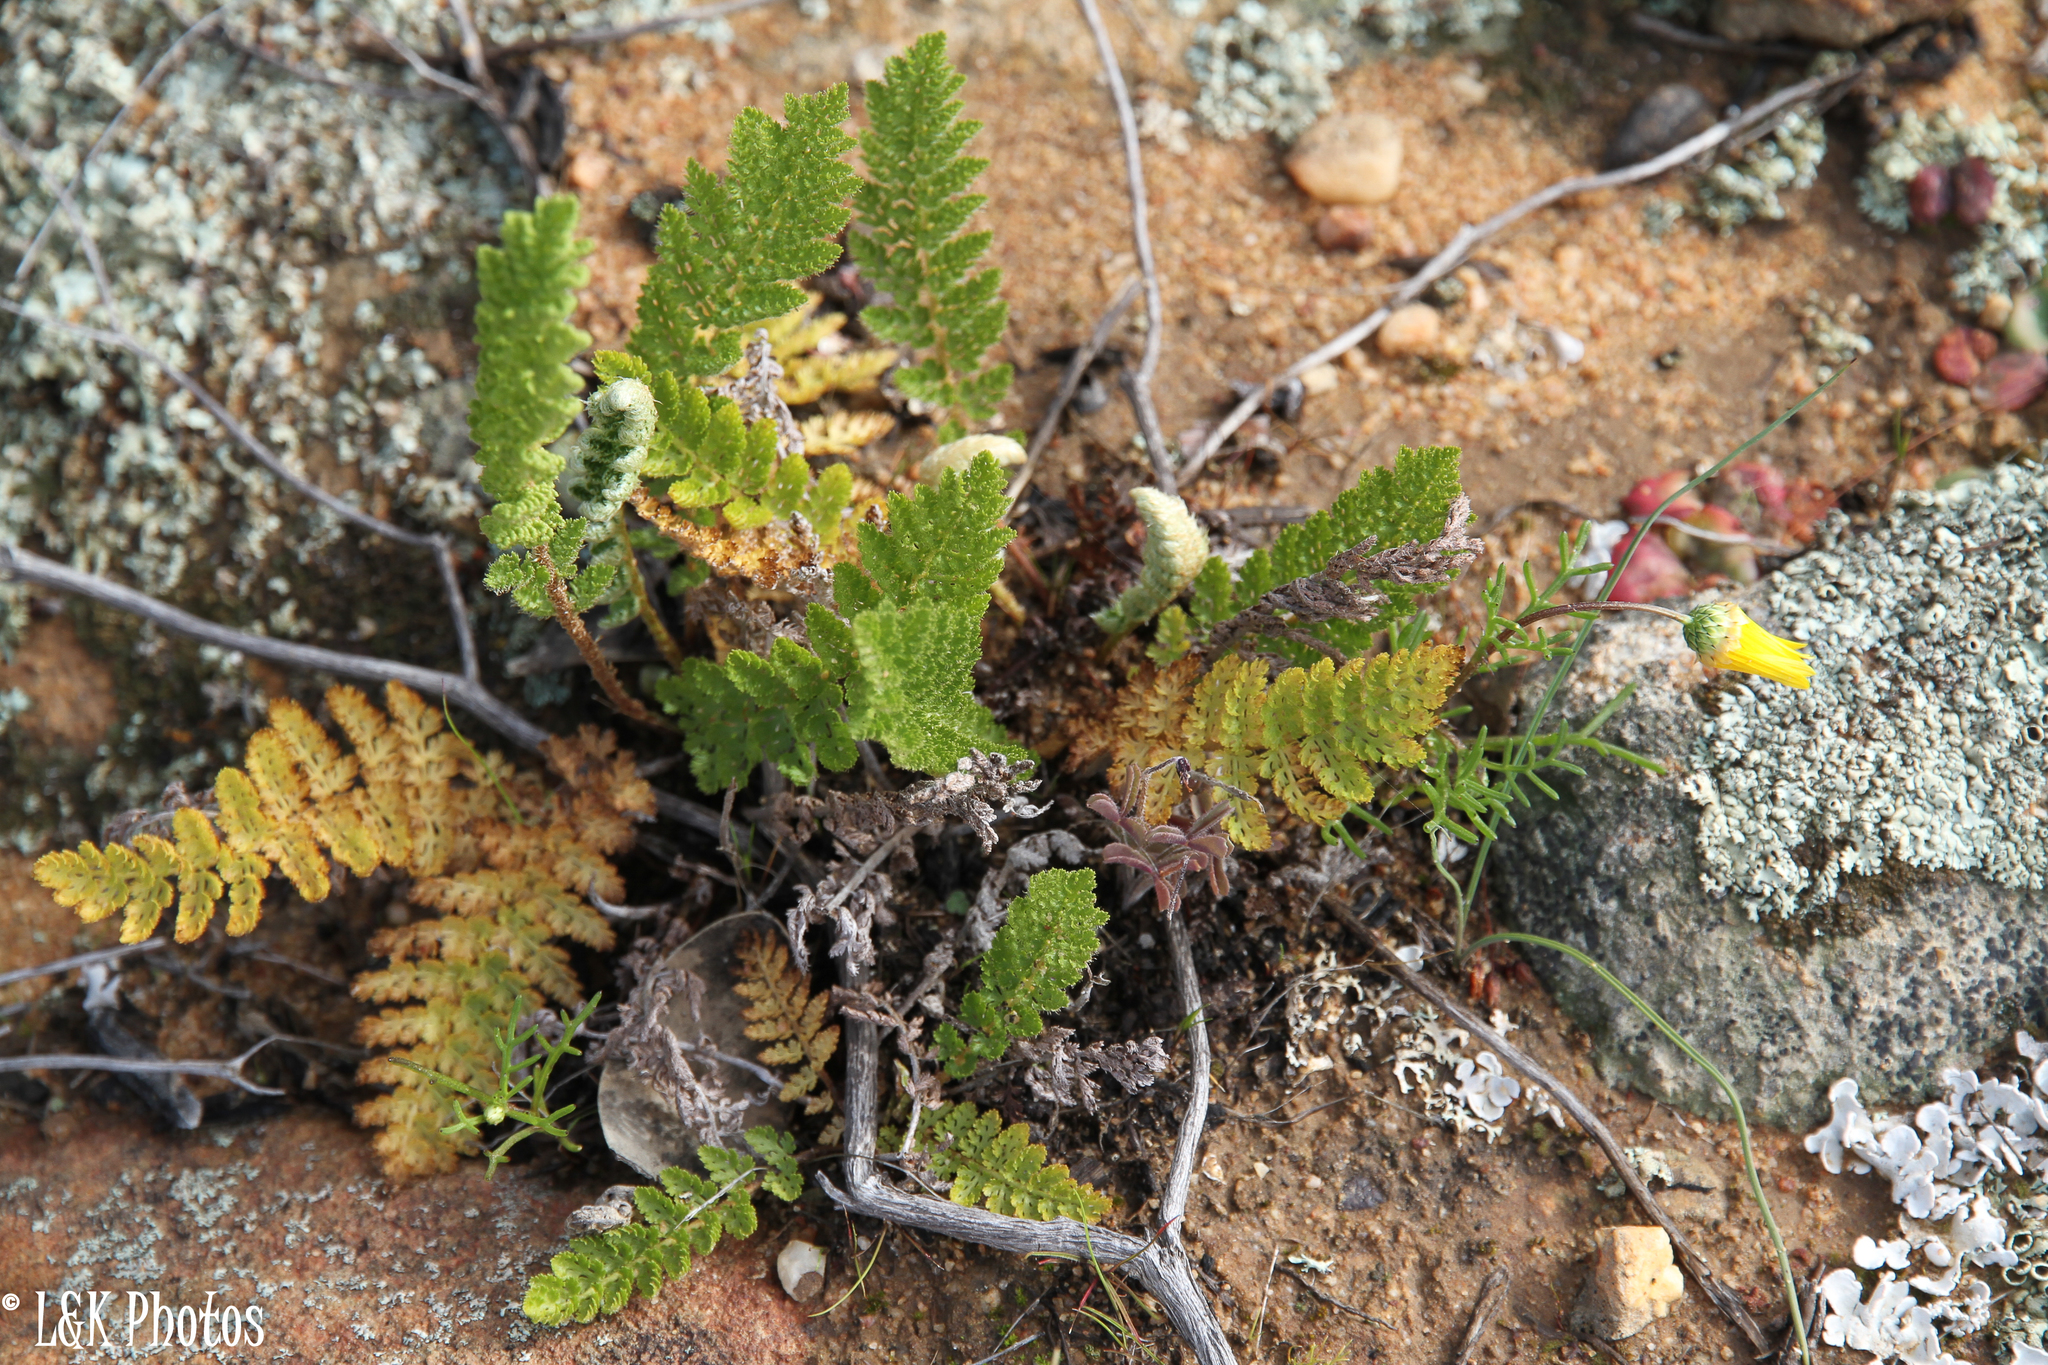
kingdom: Plantae
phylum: Tracheophyta
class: Polypodiopsida
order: Schizaeales
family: Anemiaceae
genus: Anemia
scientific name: Anemia caffrorum
